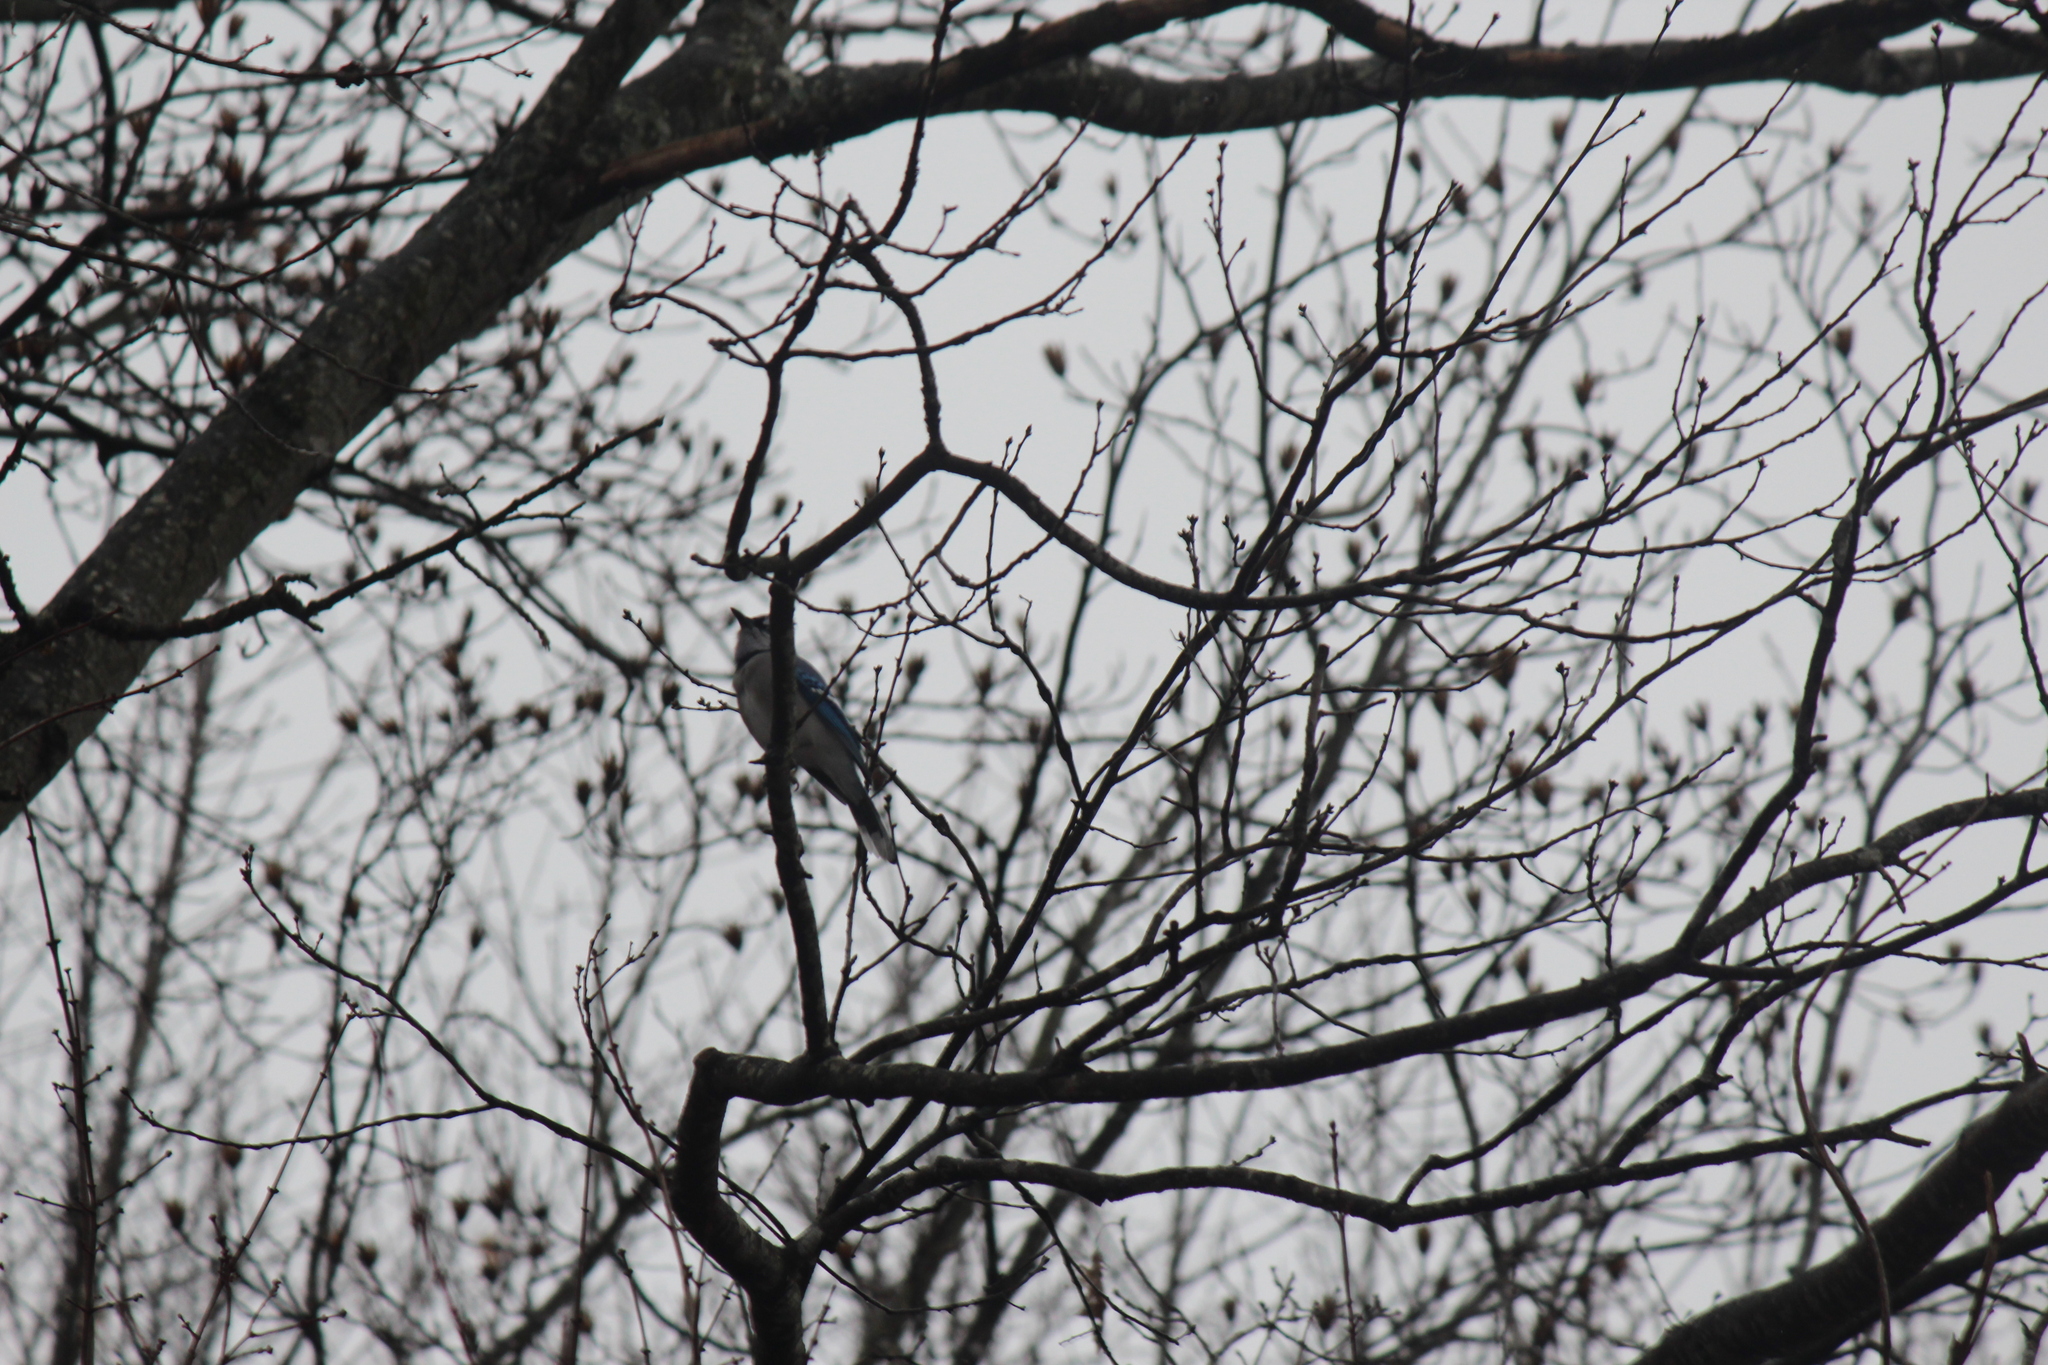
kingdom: Animalia
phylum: Chordata
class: Aves
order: Passeriformes
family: Corvidae
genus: Cyanocitta
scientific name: Cyanocitta cristata
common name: Blue jay
